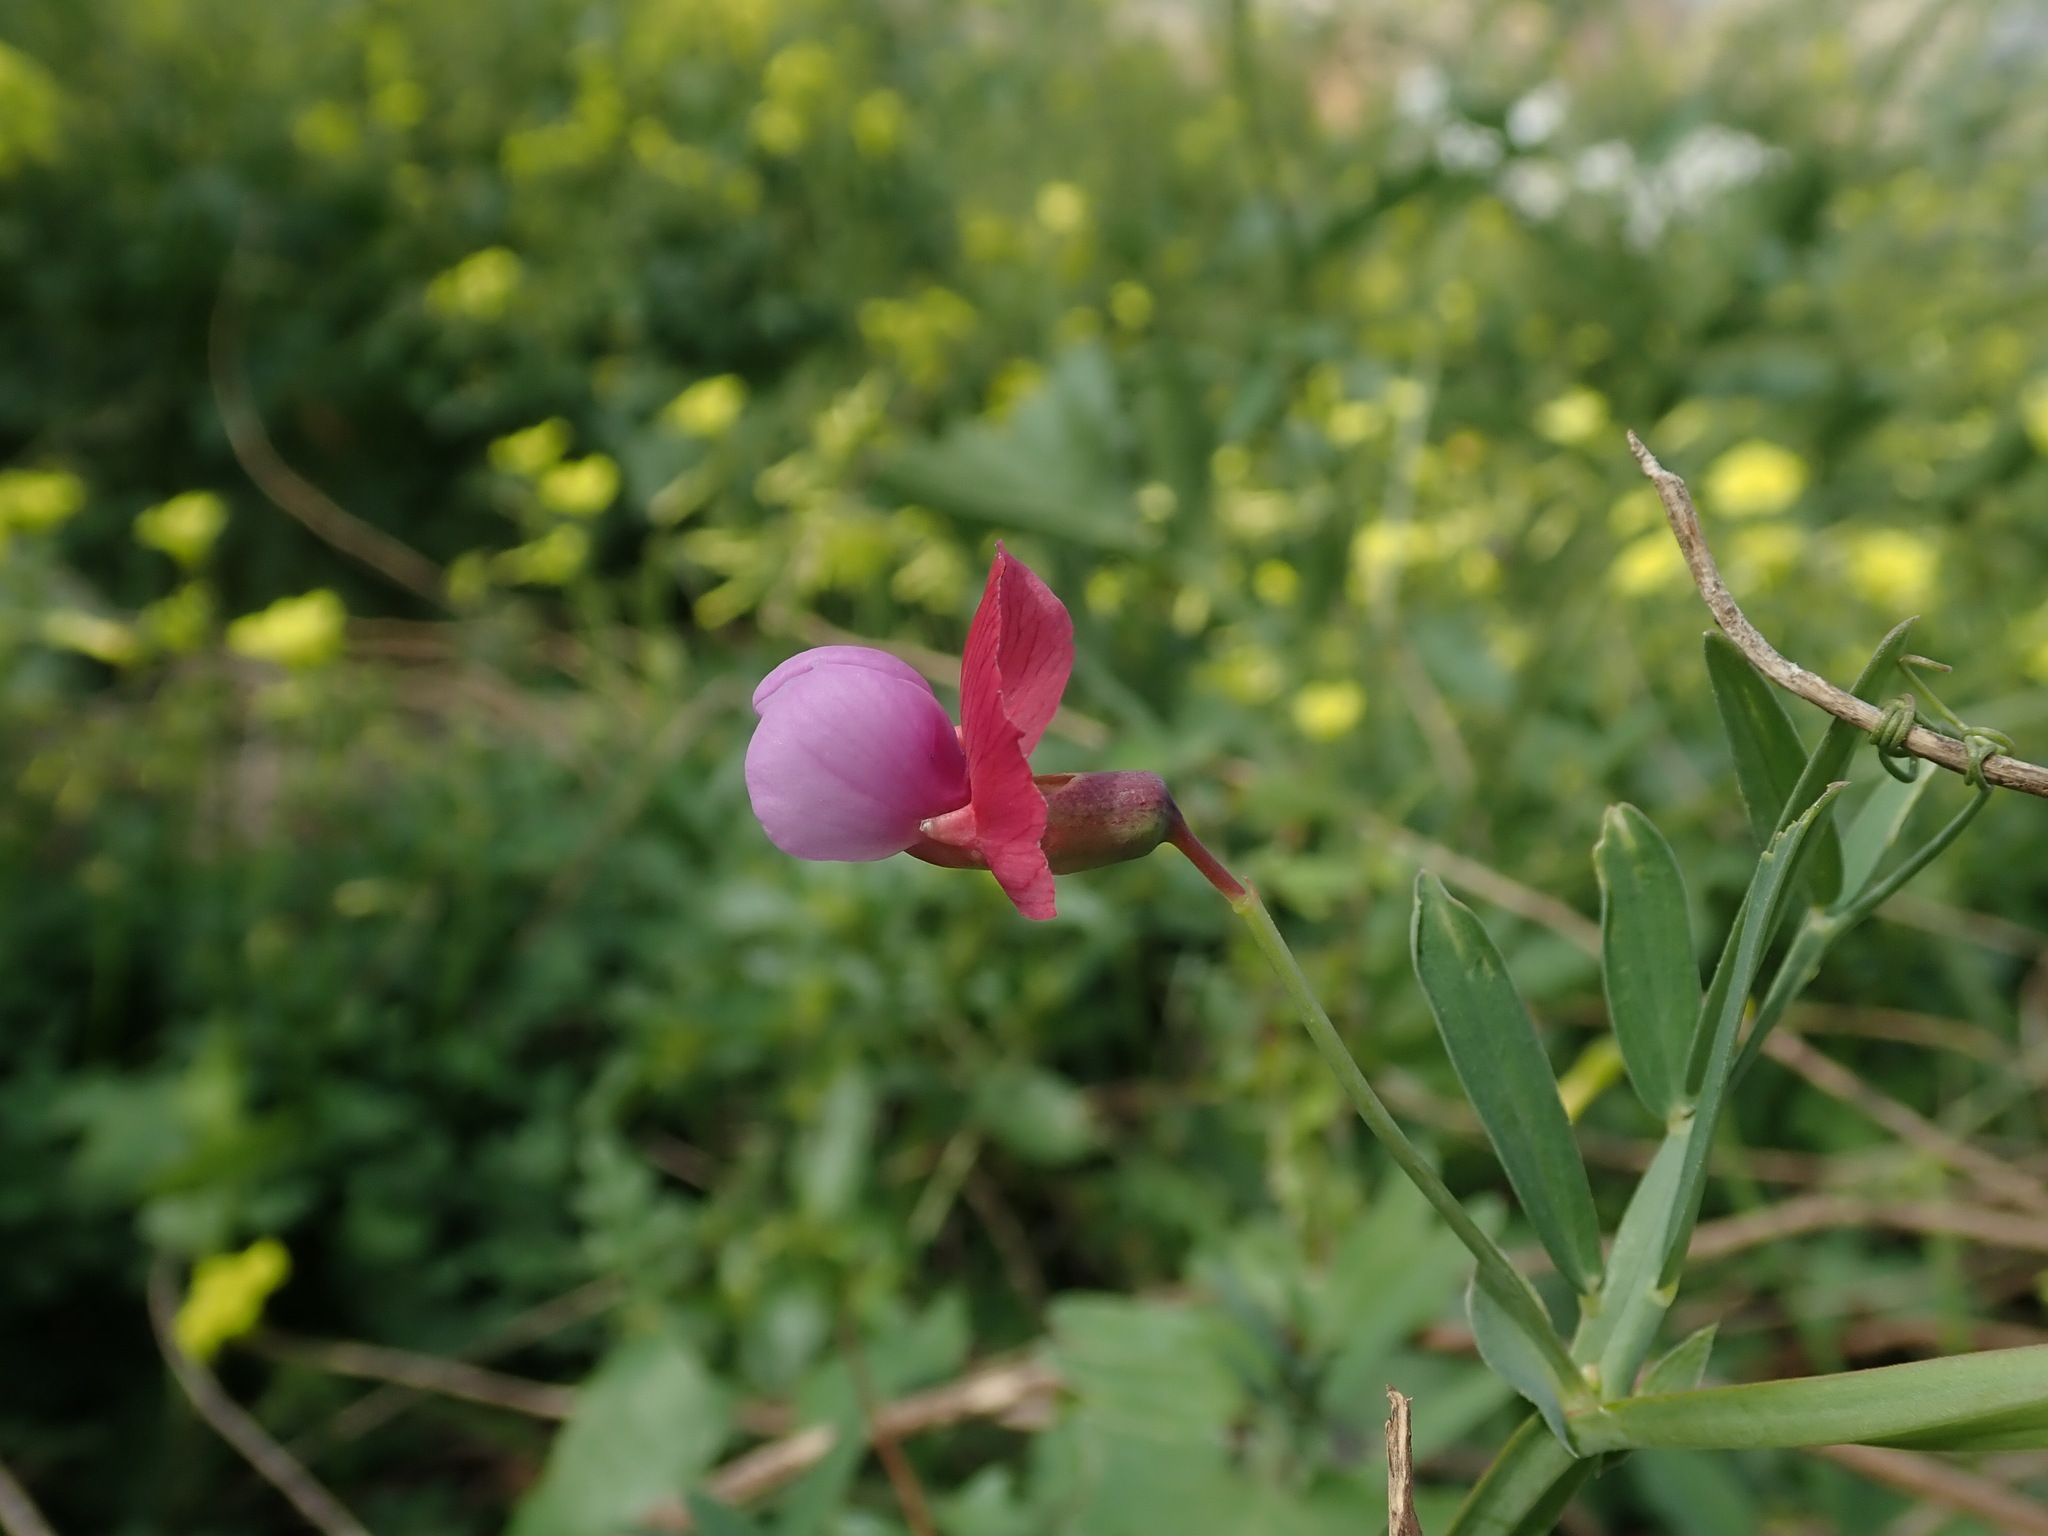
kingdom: Plantae
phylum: Tracheophyta
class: Magnoliopsida
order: Fabales
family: Fabaceae
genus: Lathyrus
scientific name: Lathyrus clymenum
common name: Spanish vetchling
